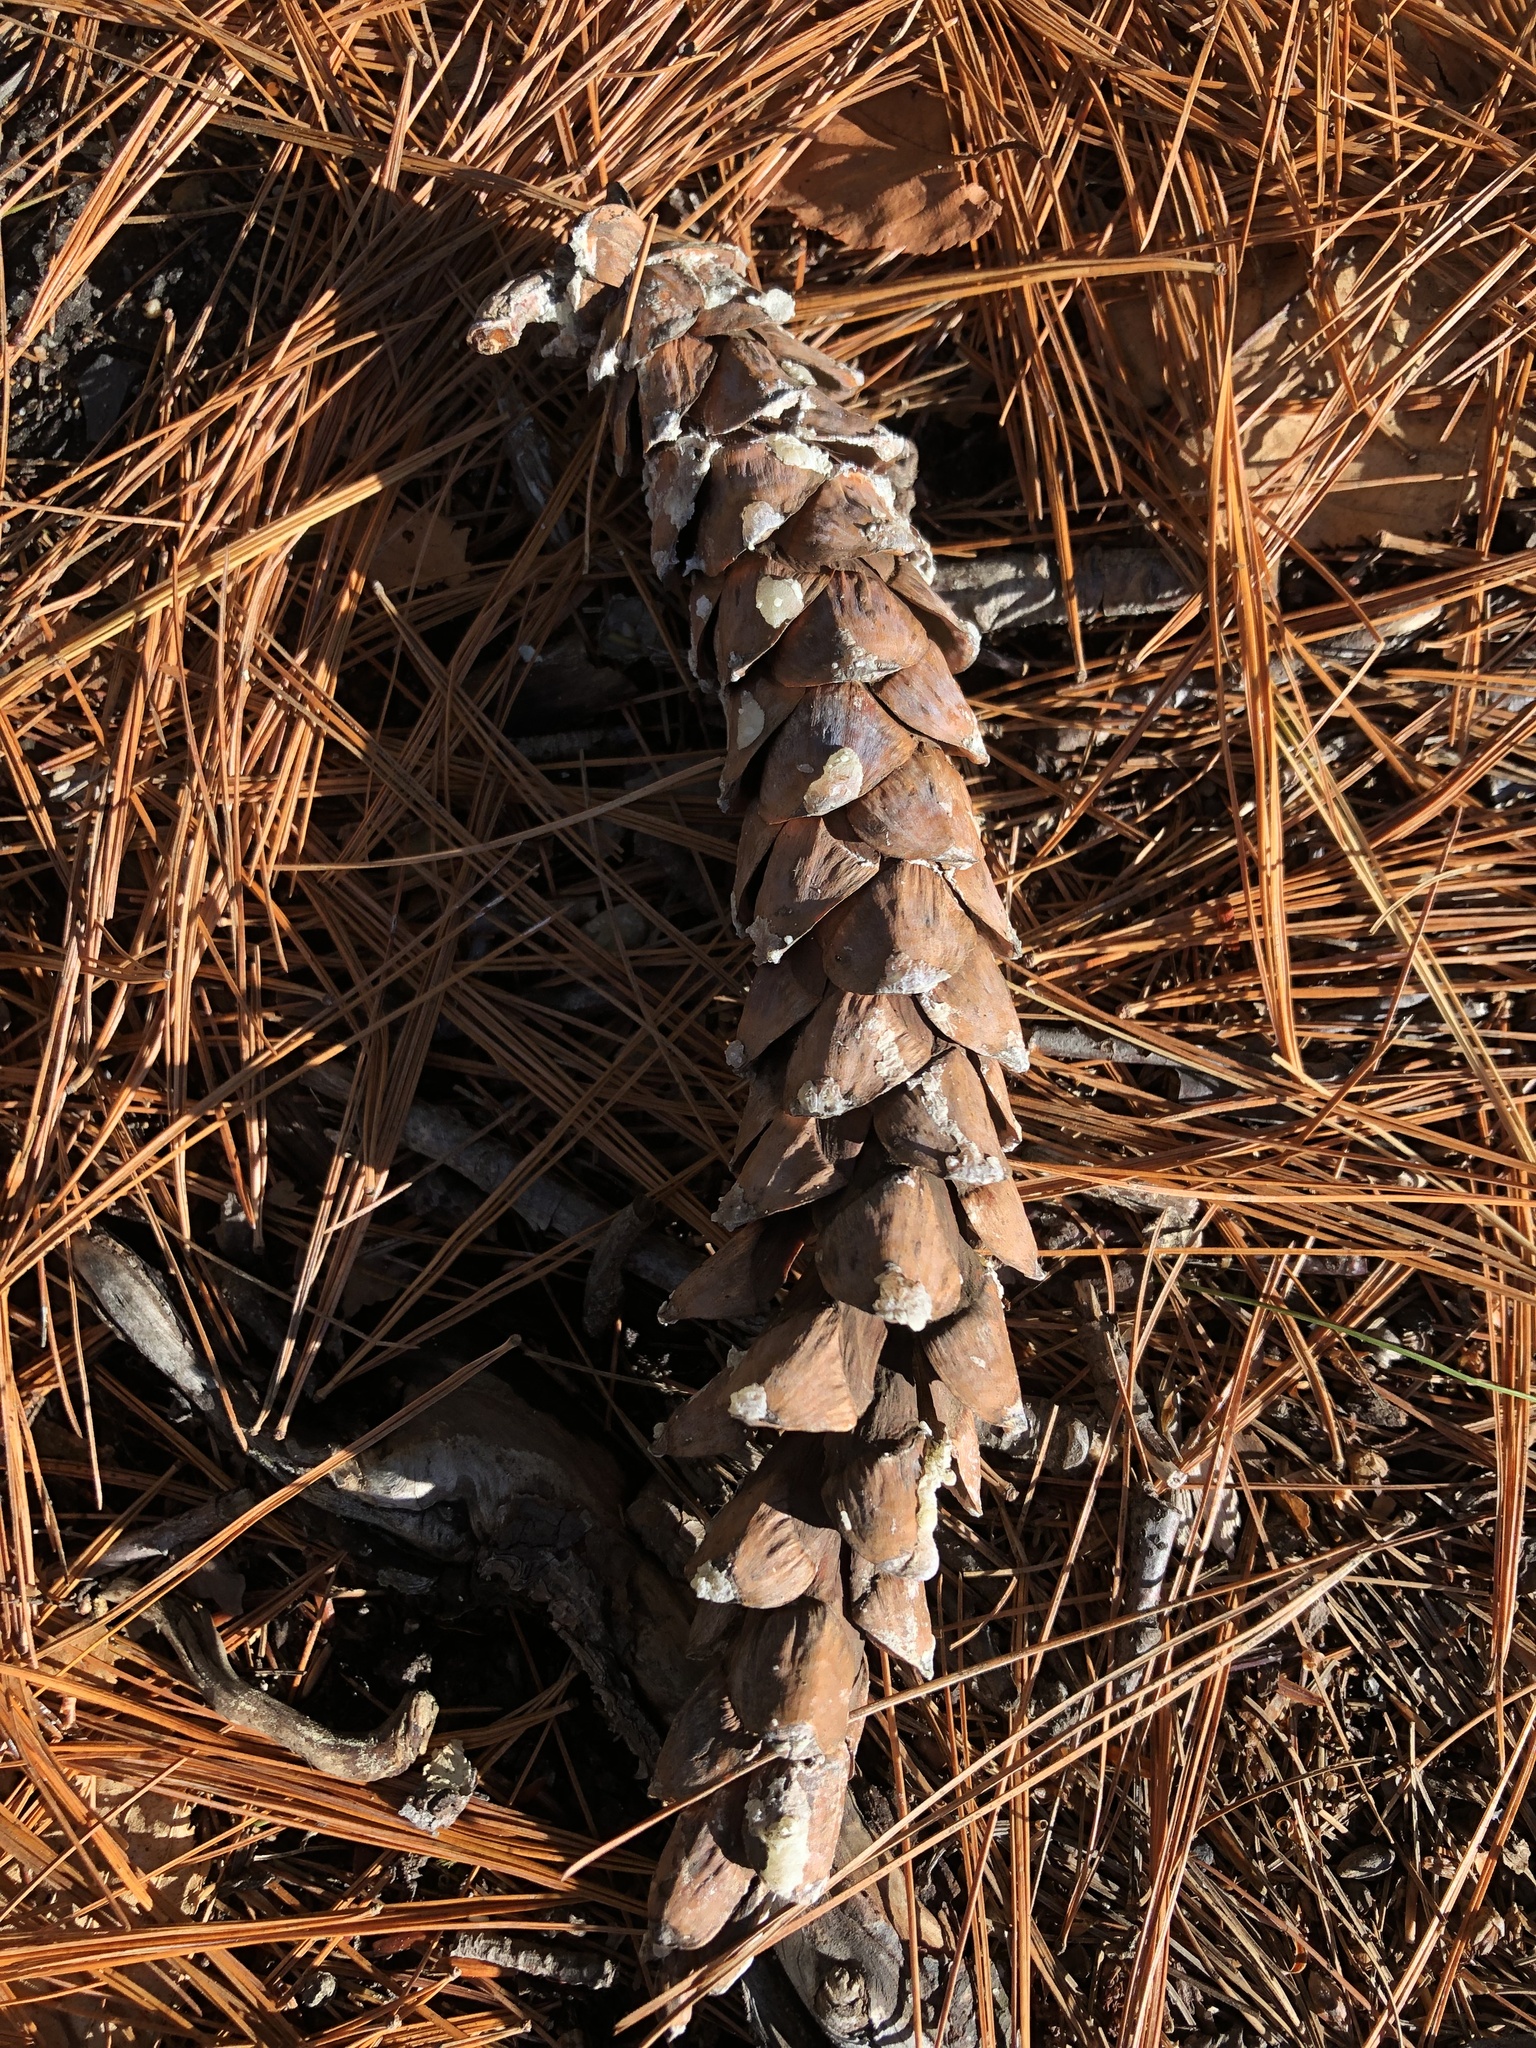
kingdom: Plantae
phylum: Tracheophyta
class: Pinopsida
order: Pinales
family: Pinaceae
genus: Pinus
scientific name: Pinus strobus
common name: Weymouth pine
